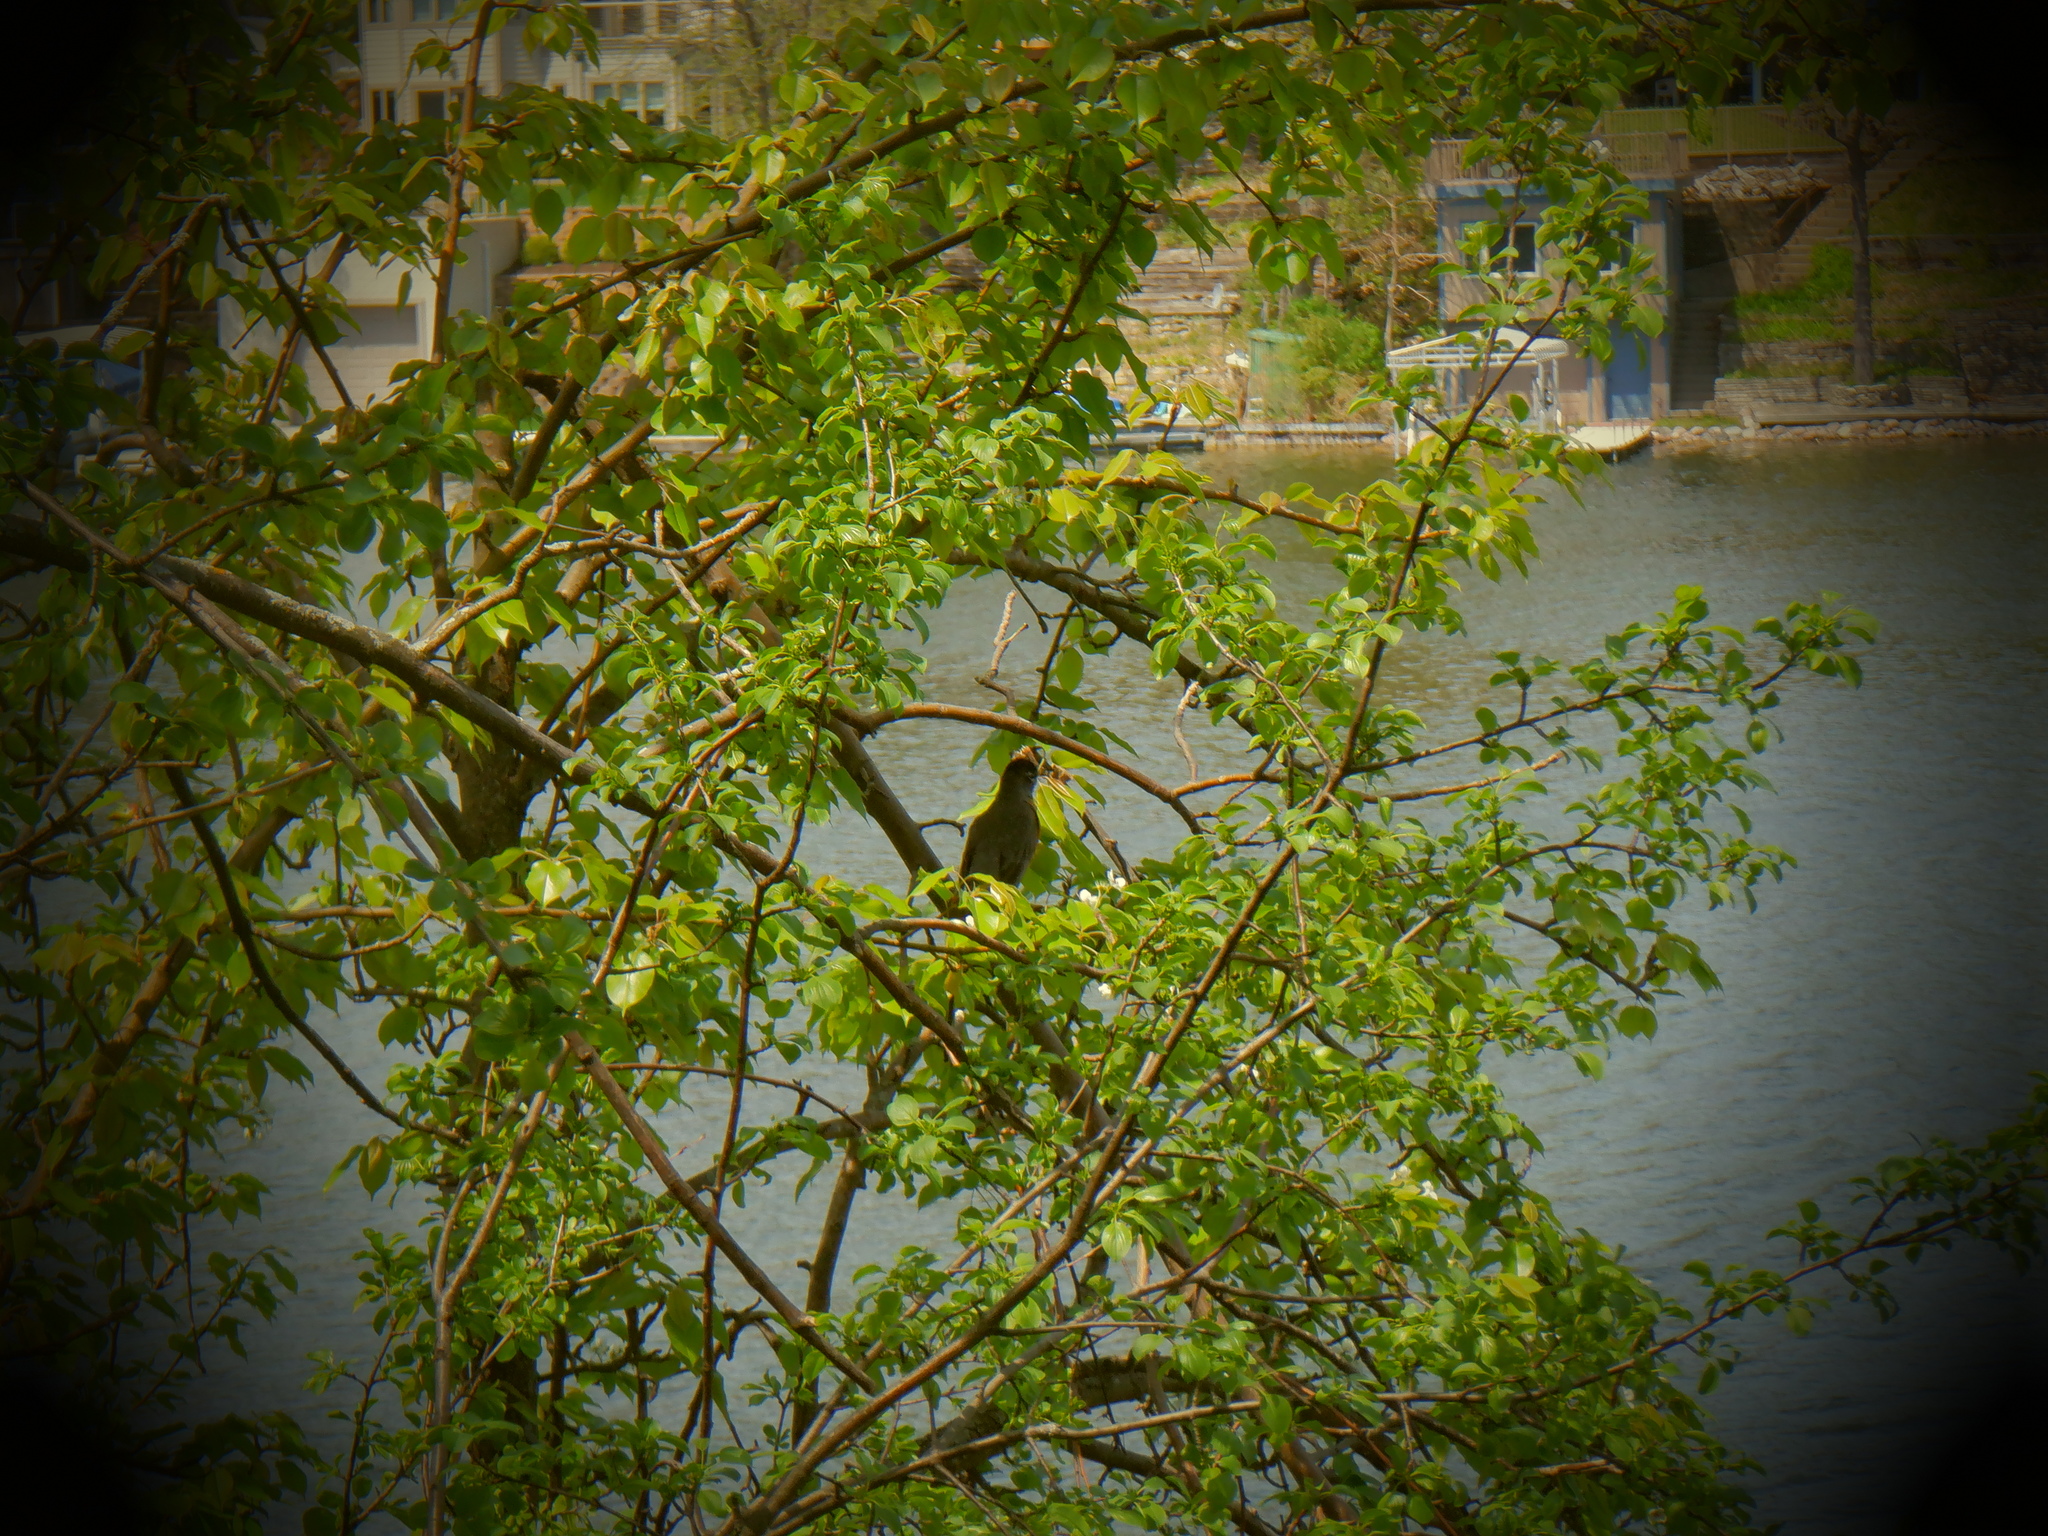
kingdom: Animalia
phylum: Chordata
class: Aves
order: Passeriformes
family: Turdidae
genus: Turdus
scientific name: Turdus migratorius
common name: American robin
